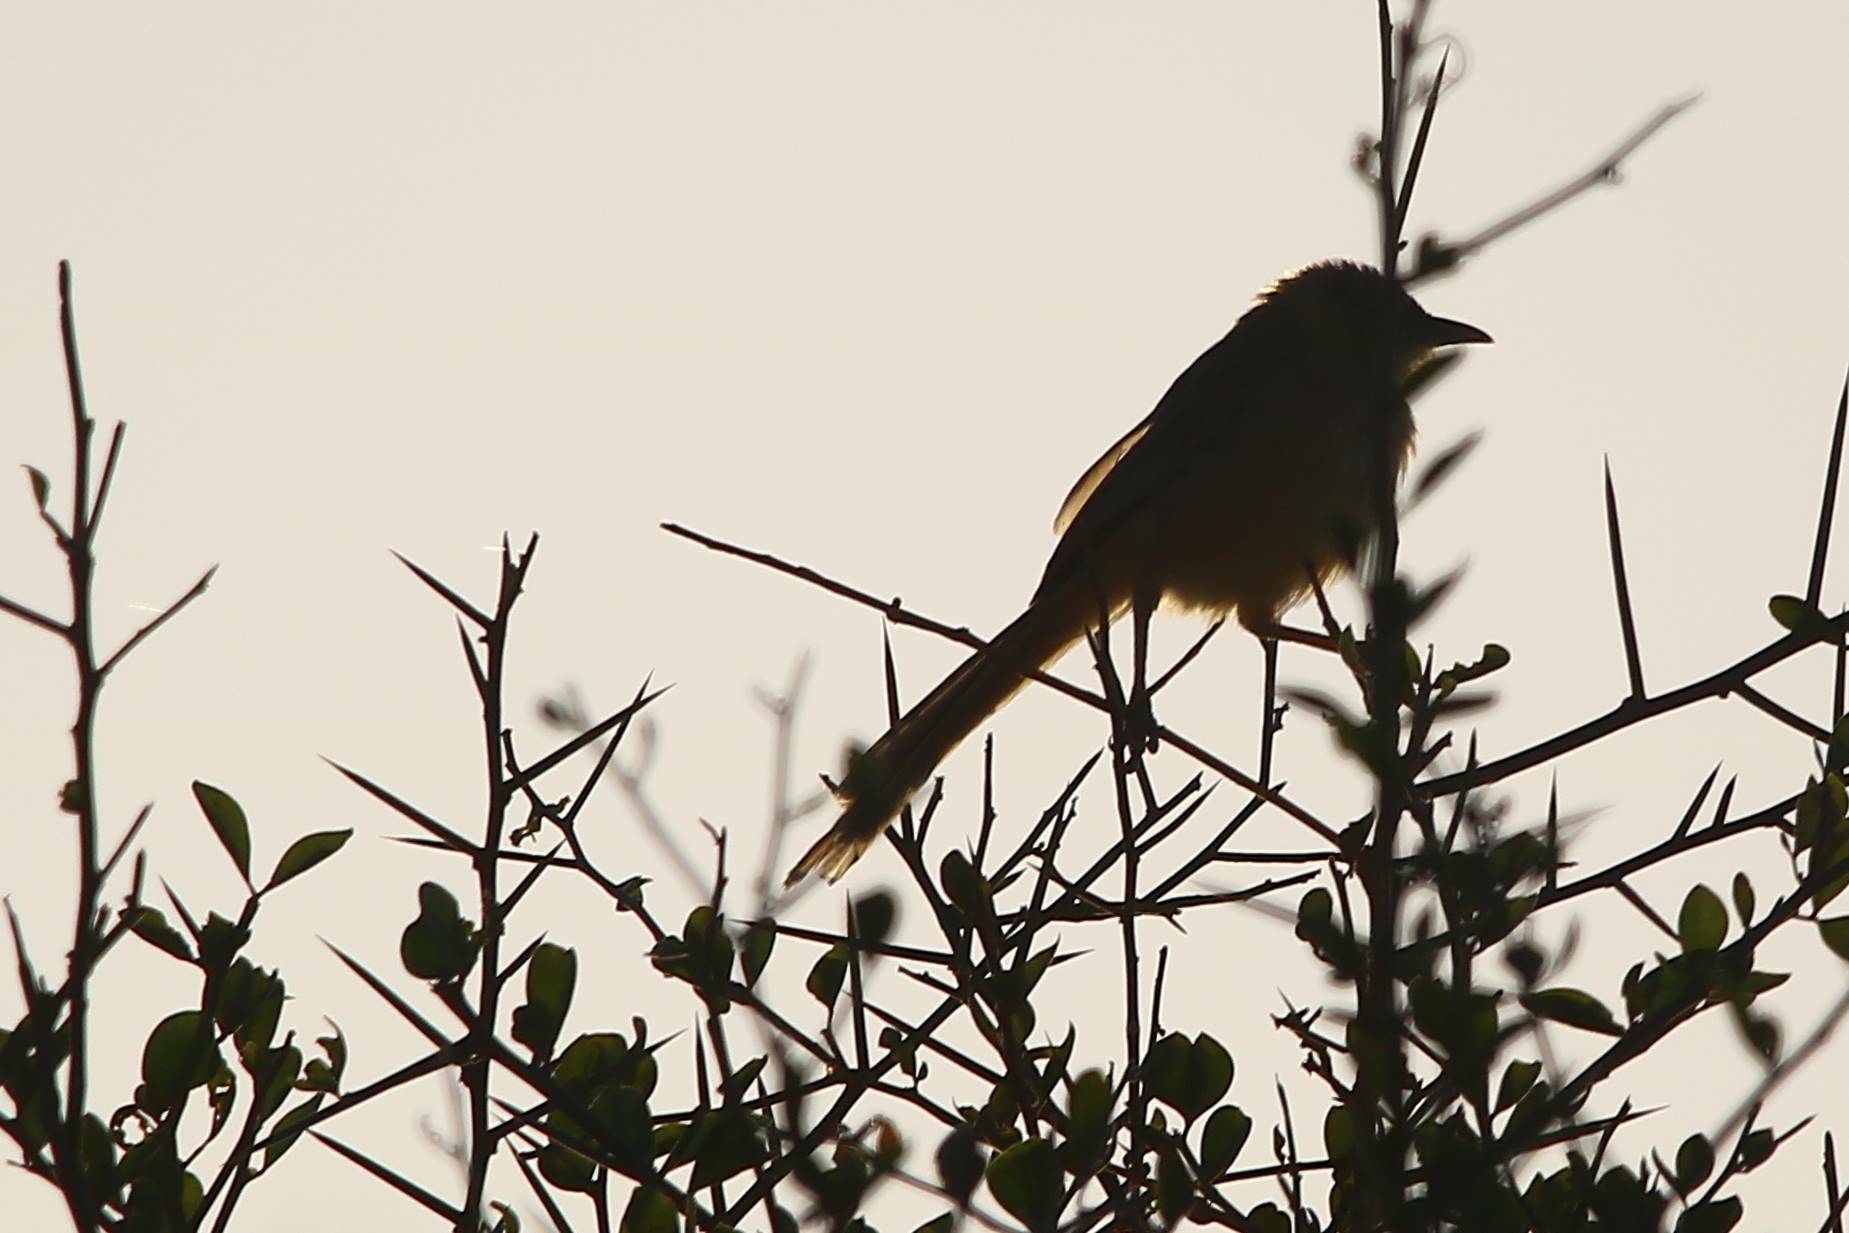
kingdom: Animalia
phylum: Chordata
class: Aves
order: Passeriformes
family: Leiothrichidae
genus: Turdoides
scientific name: Turdoides fulva
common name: Fulvous babbler
